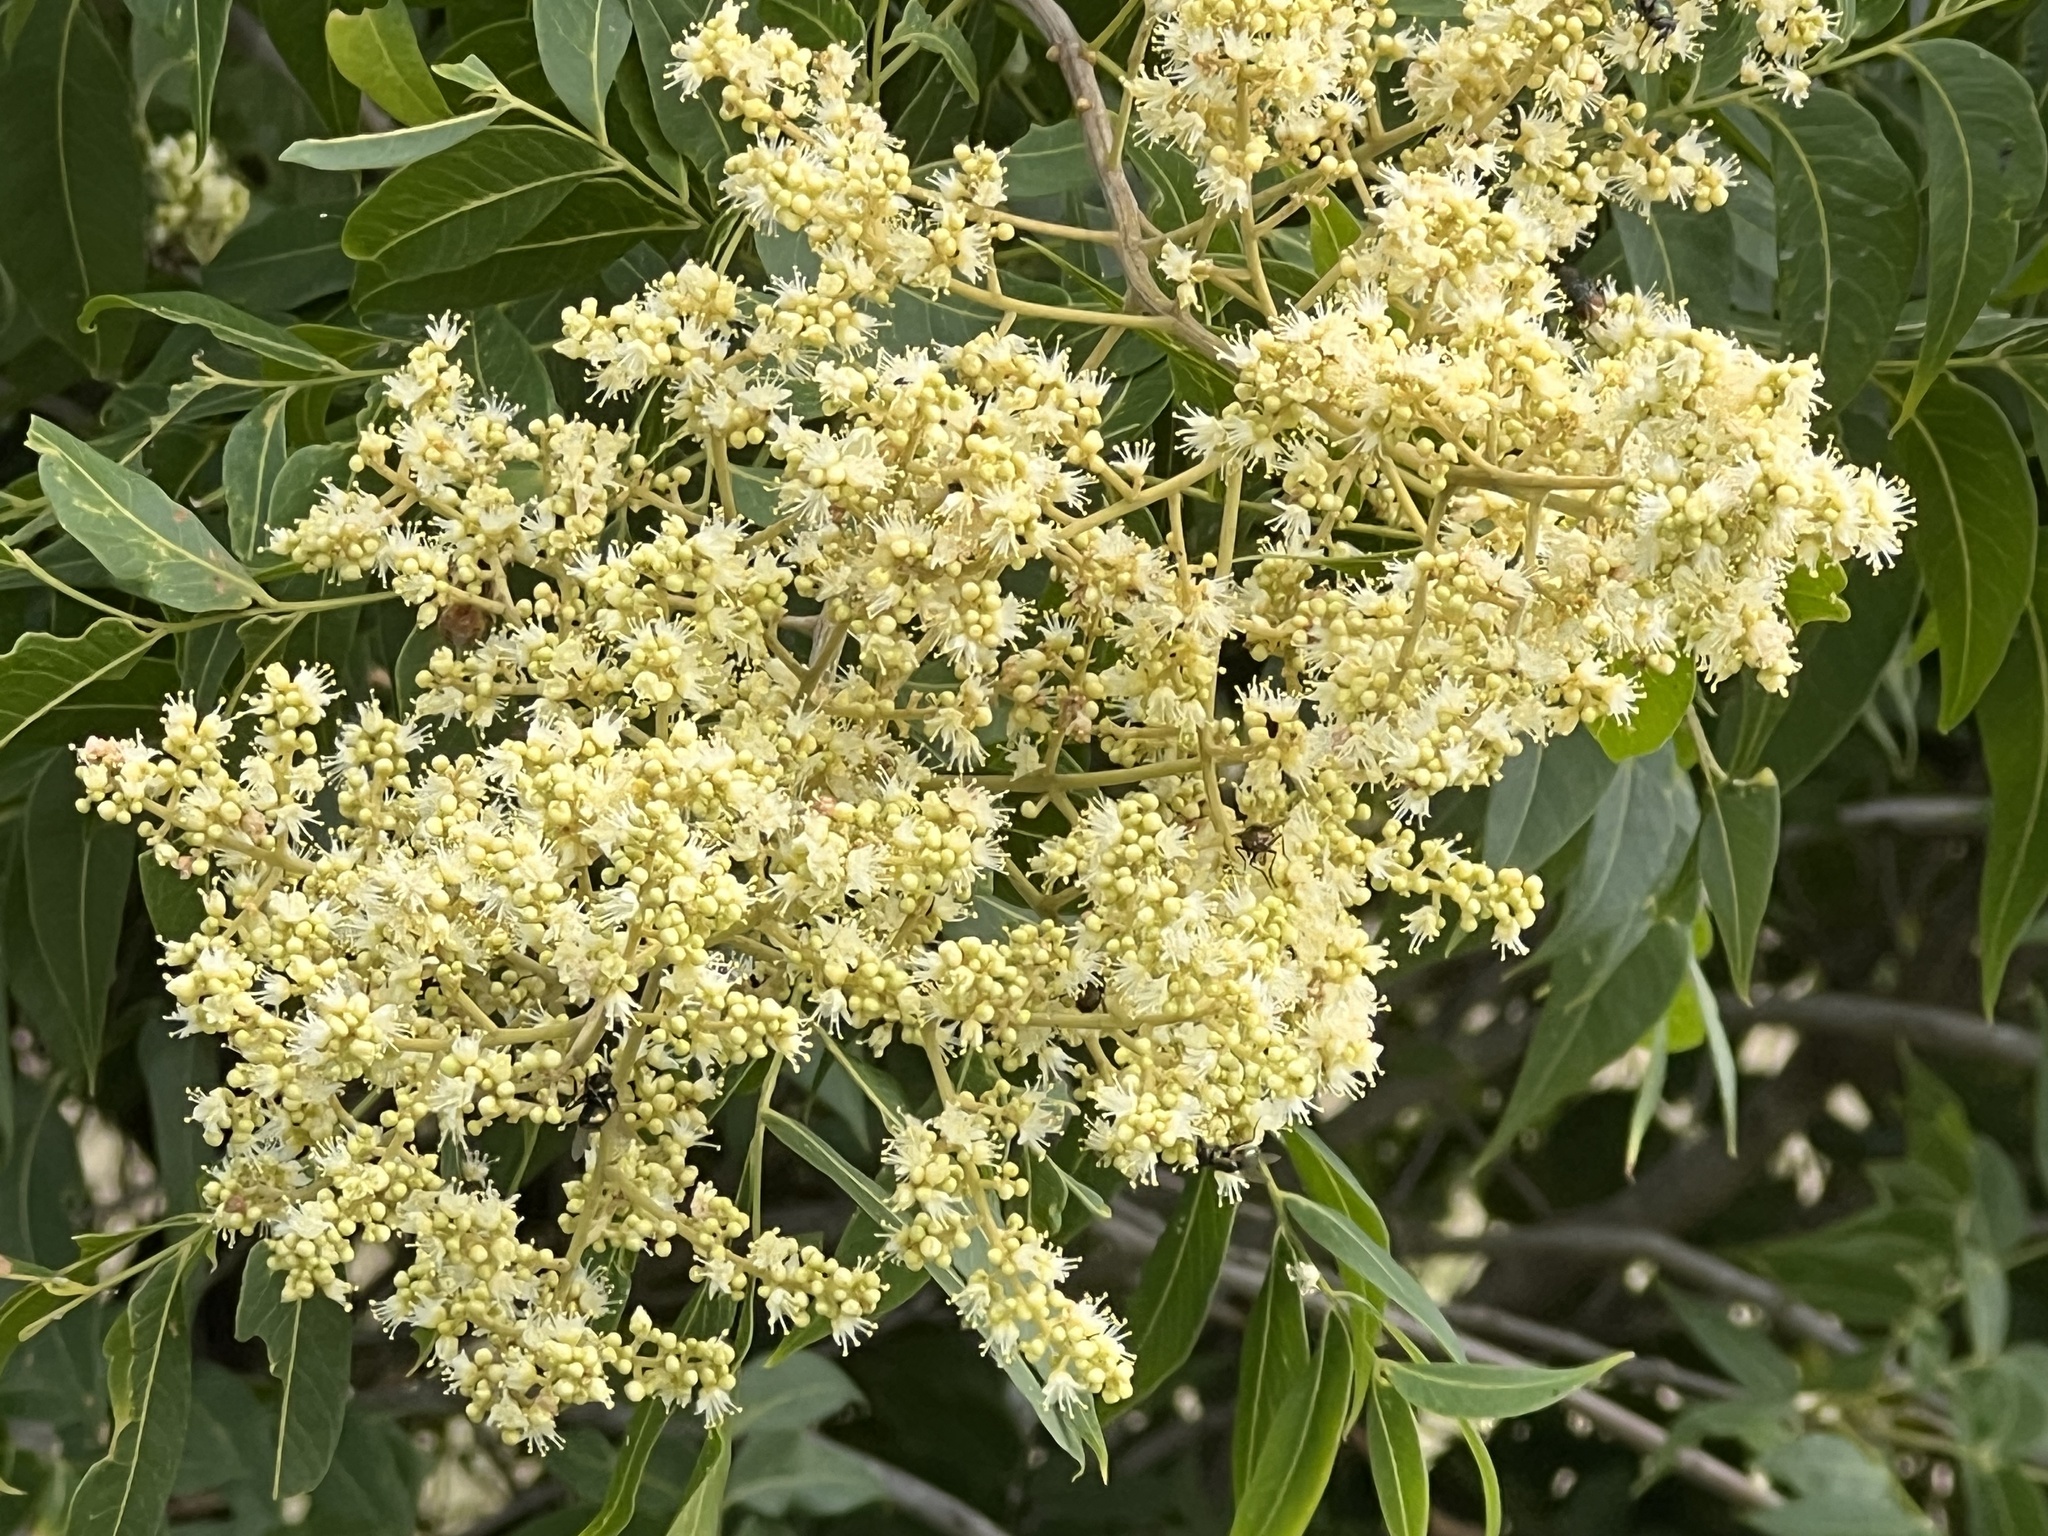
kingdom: Plantae
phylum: Tracheophyta
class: Magnoliopsida
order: Sapindales
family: Sapindaceae
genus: Sapindus
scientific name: Sapindus drummondii
